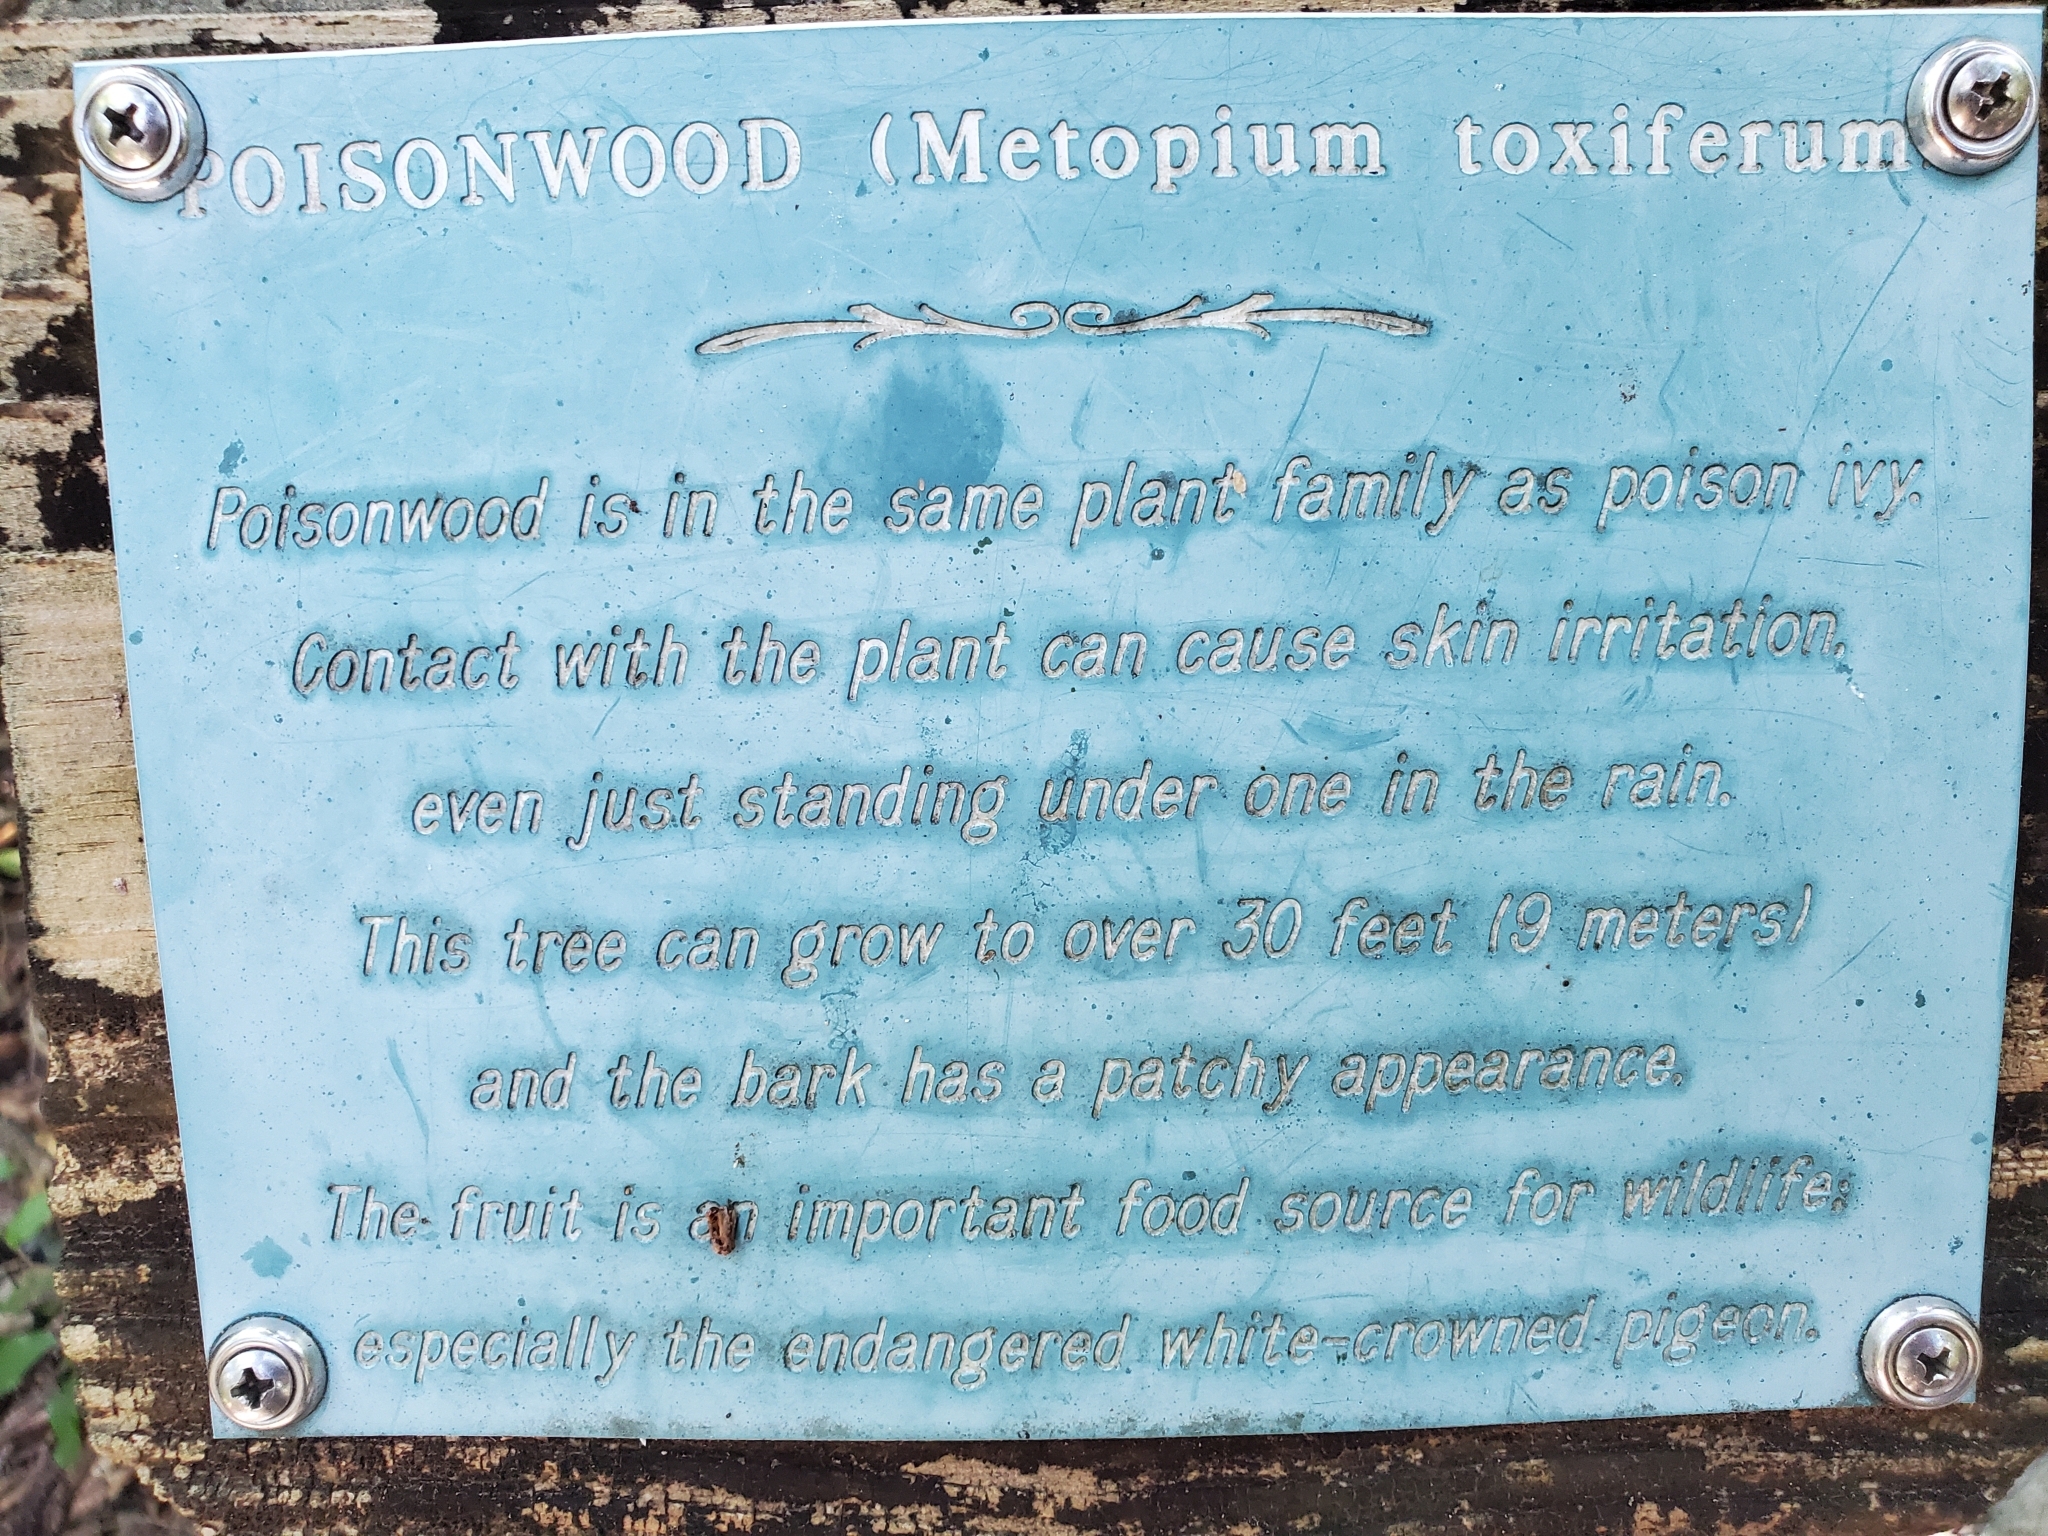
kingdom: Plantae
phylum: Tracheophyta
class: Magnoliopsida
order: Sapindales
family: Anacardiaceae
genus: Metopium
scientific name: Metopium toxiferum
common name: Florida poisontree
